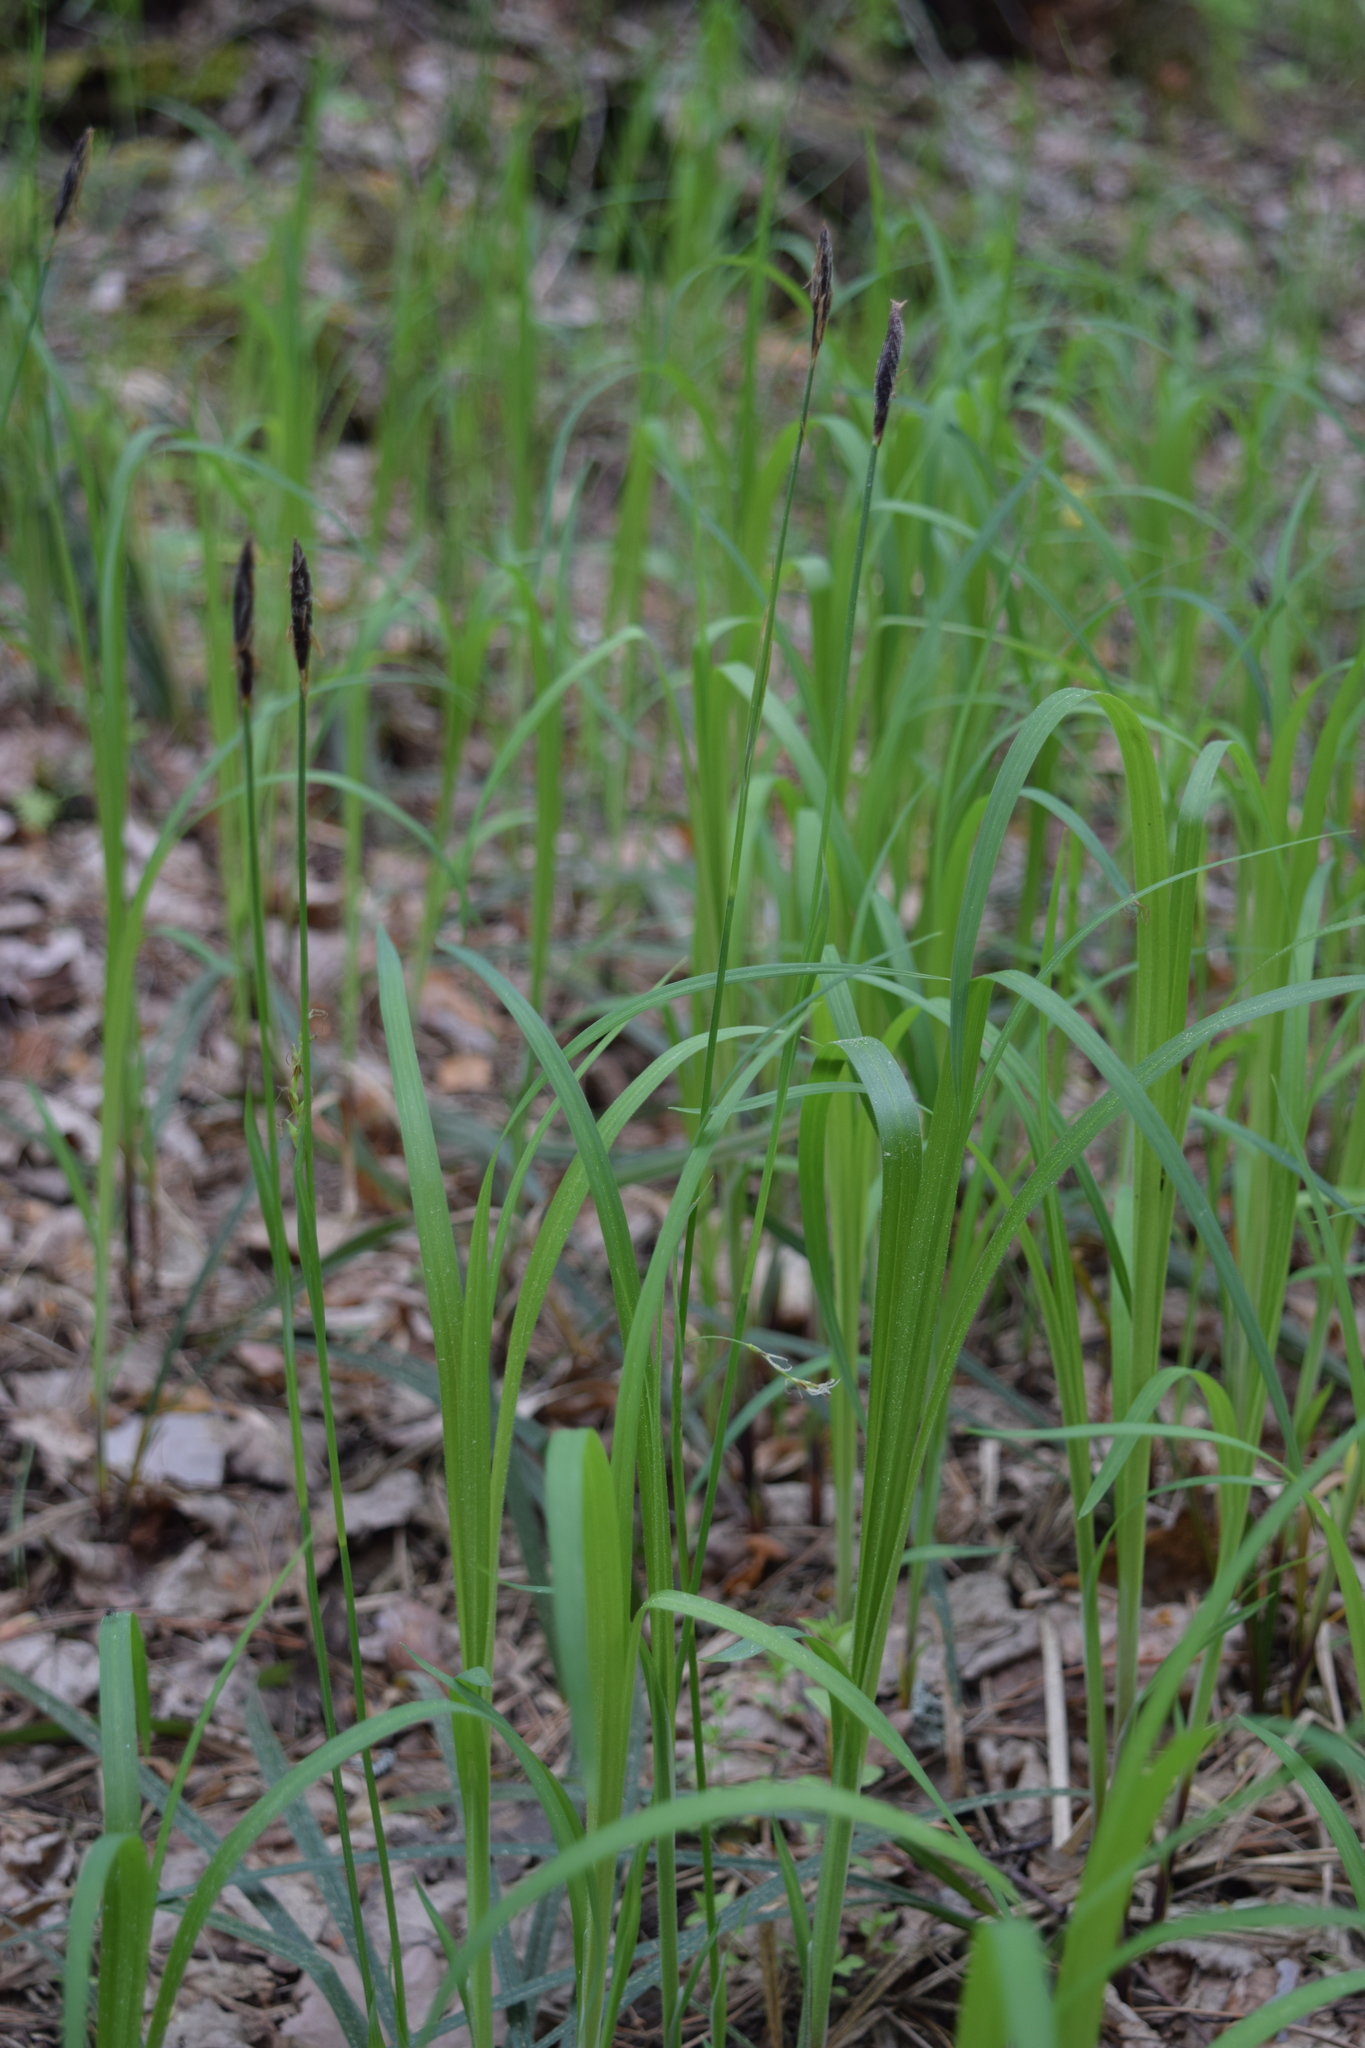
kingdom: Plantae
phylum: Tracheophyta
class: Liliopsida
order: Poales
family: Cyperaceae
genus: Carex
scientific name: Carex pilosa
